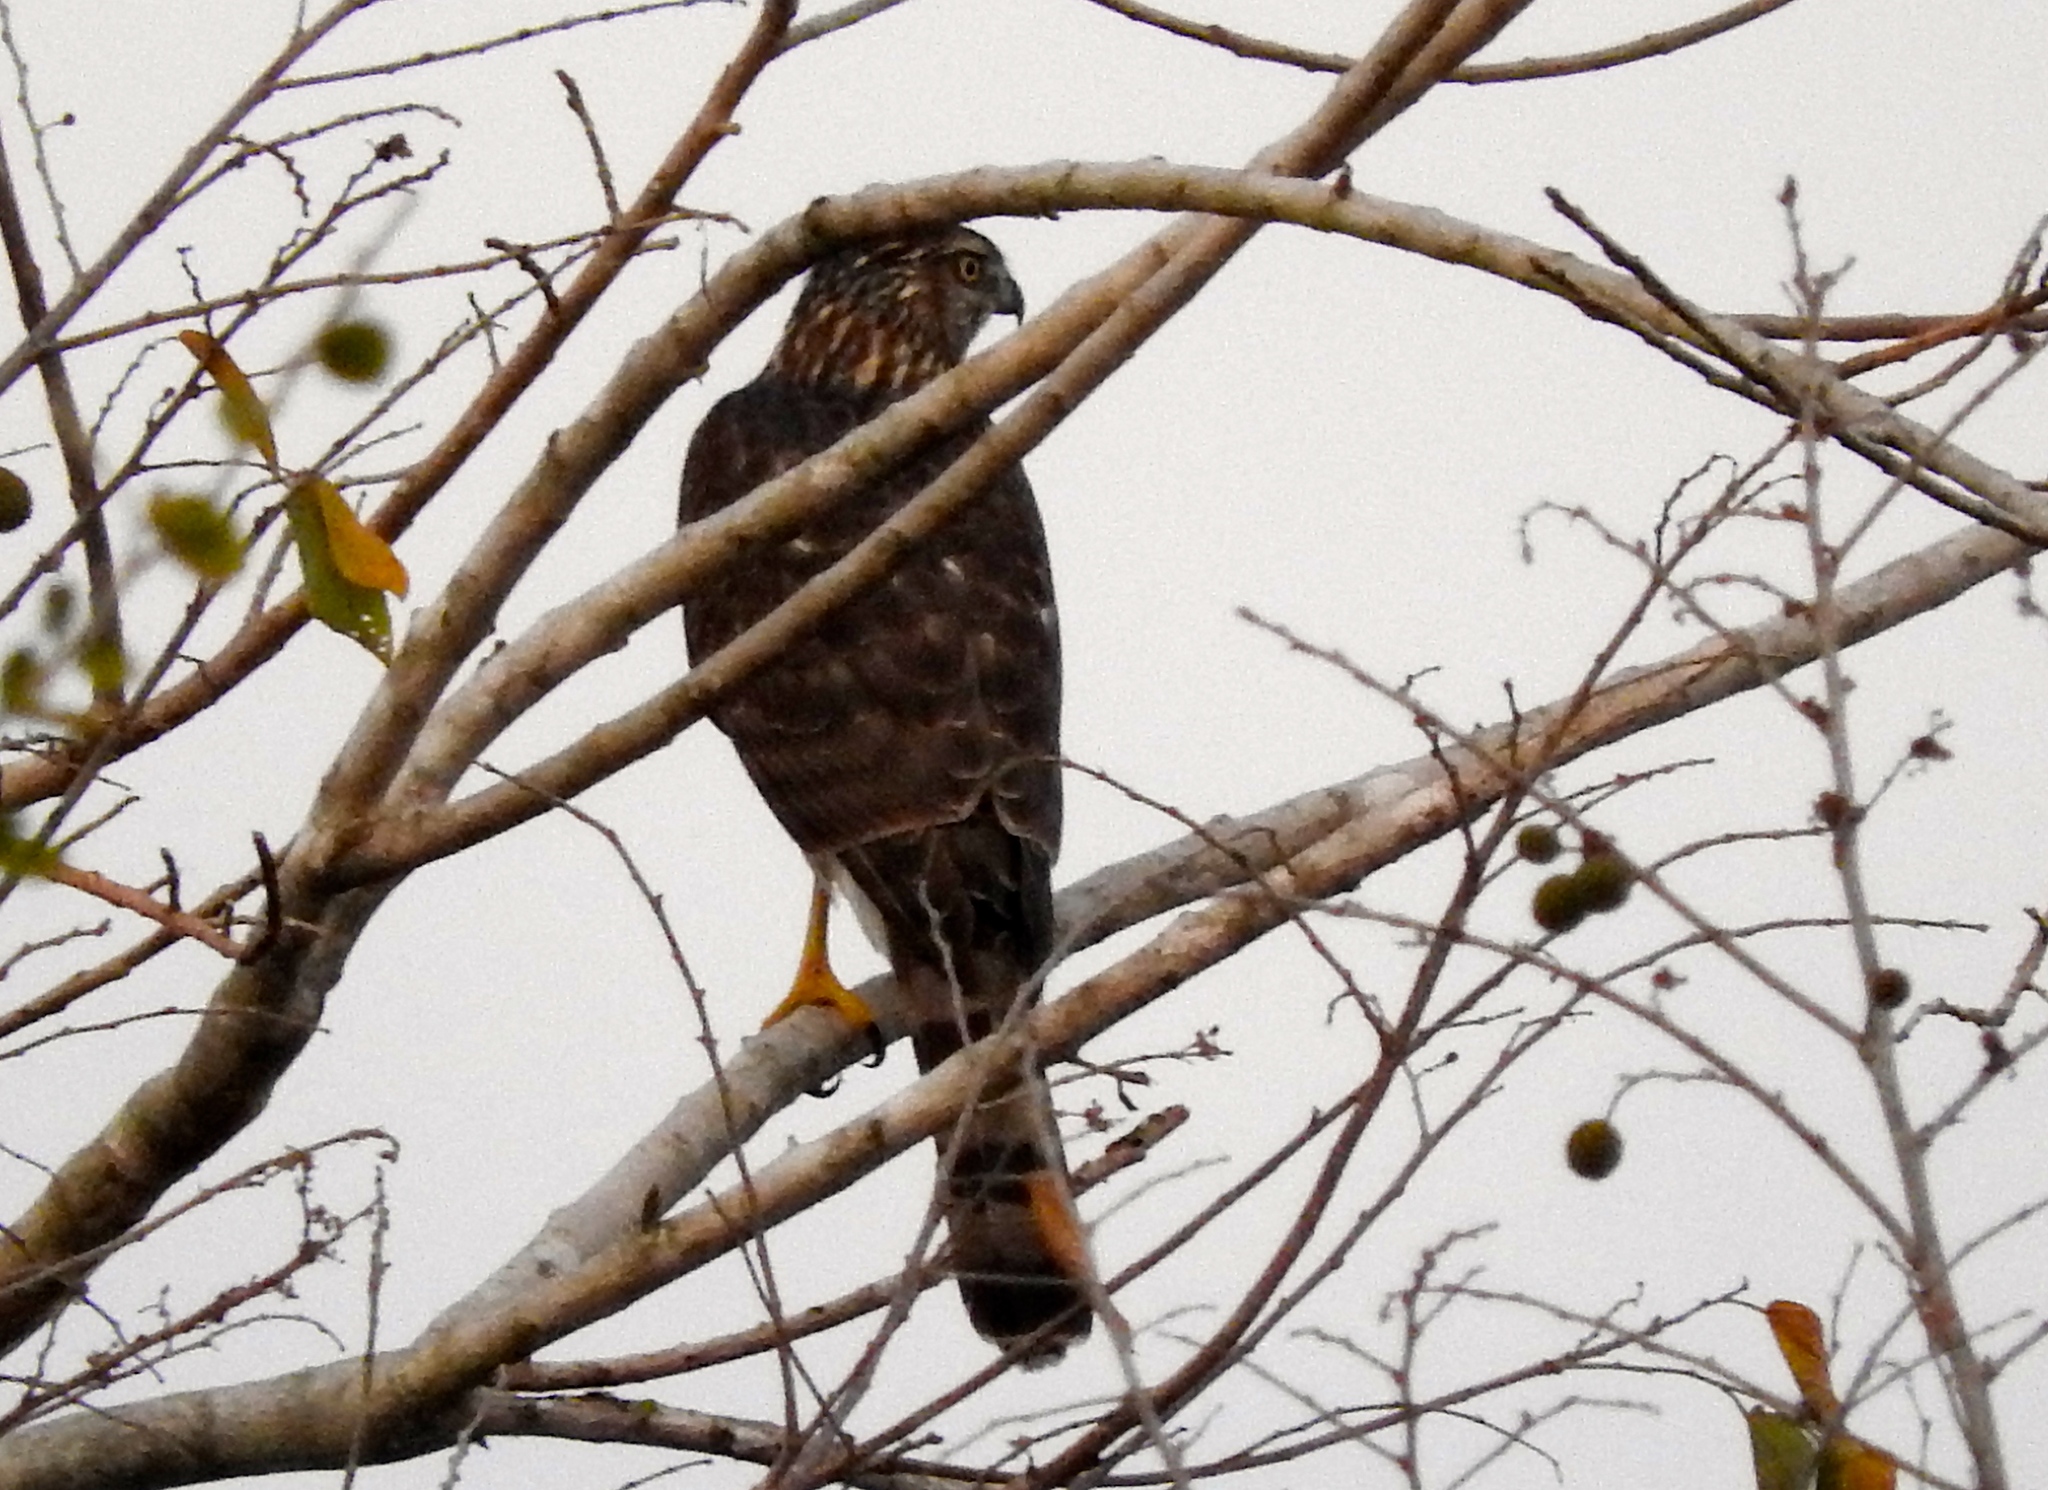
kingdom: Animalia
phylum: Chordata
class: Aves
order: Accipitriformes
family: Accipitridae
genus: Accipiter
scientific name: Accipiter
